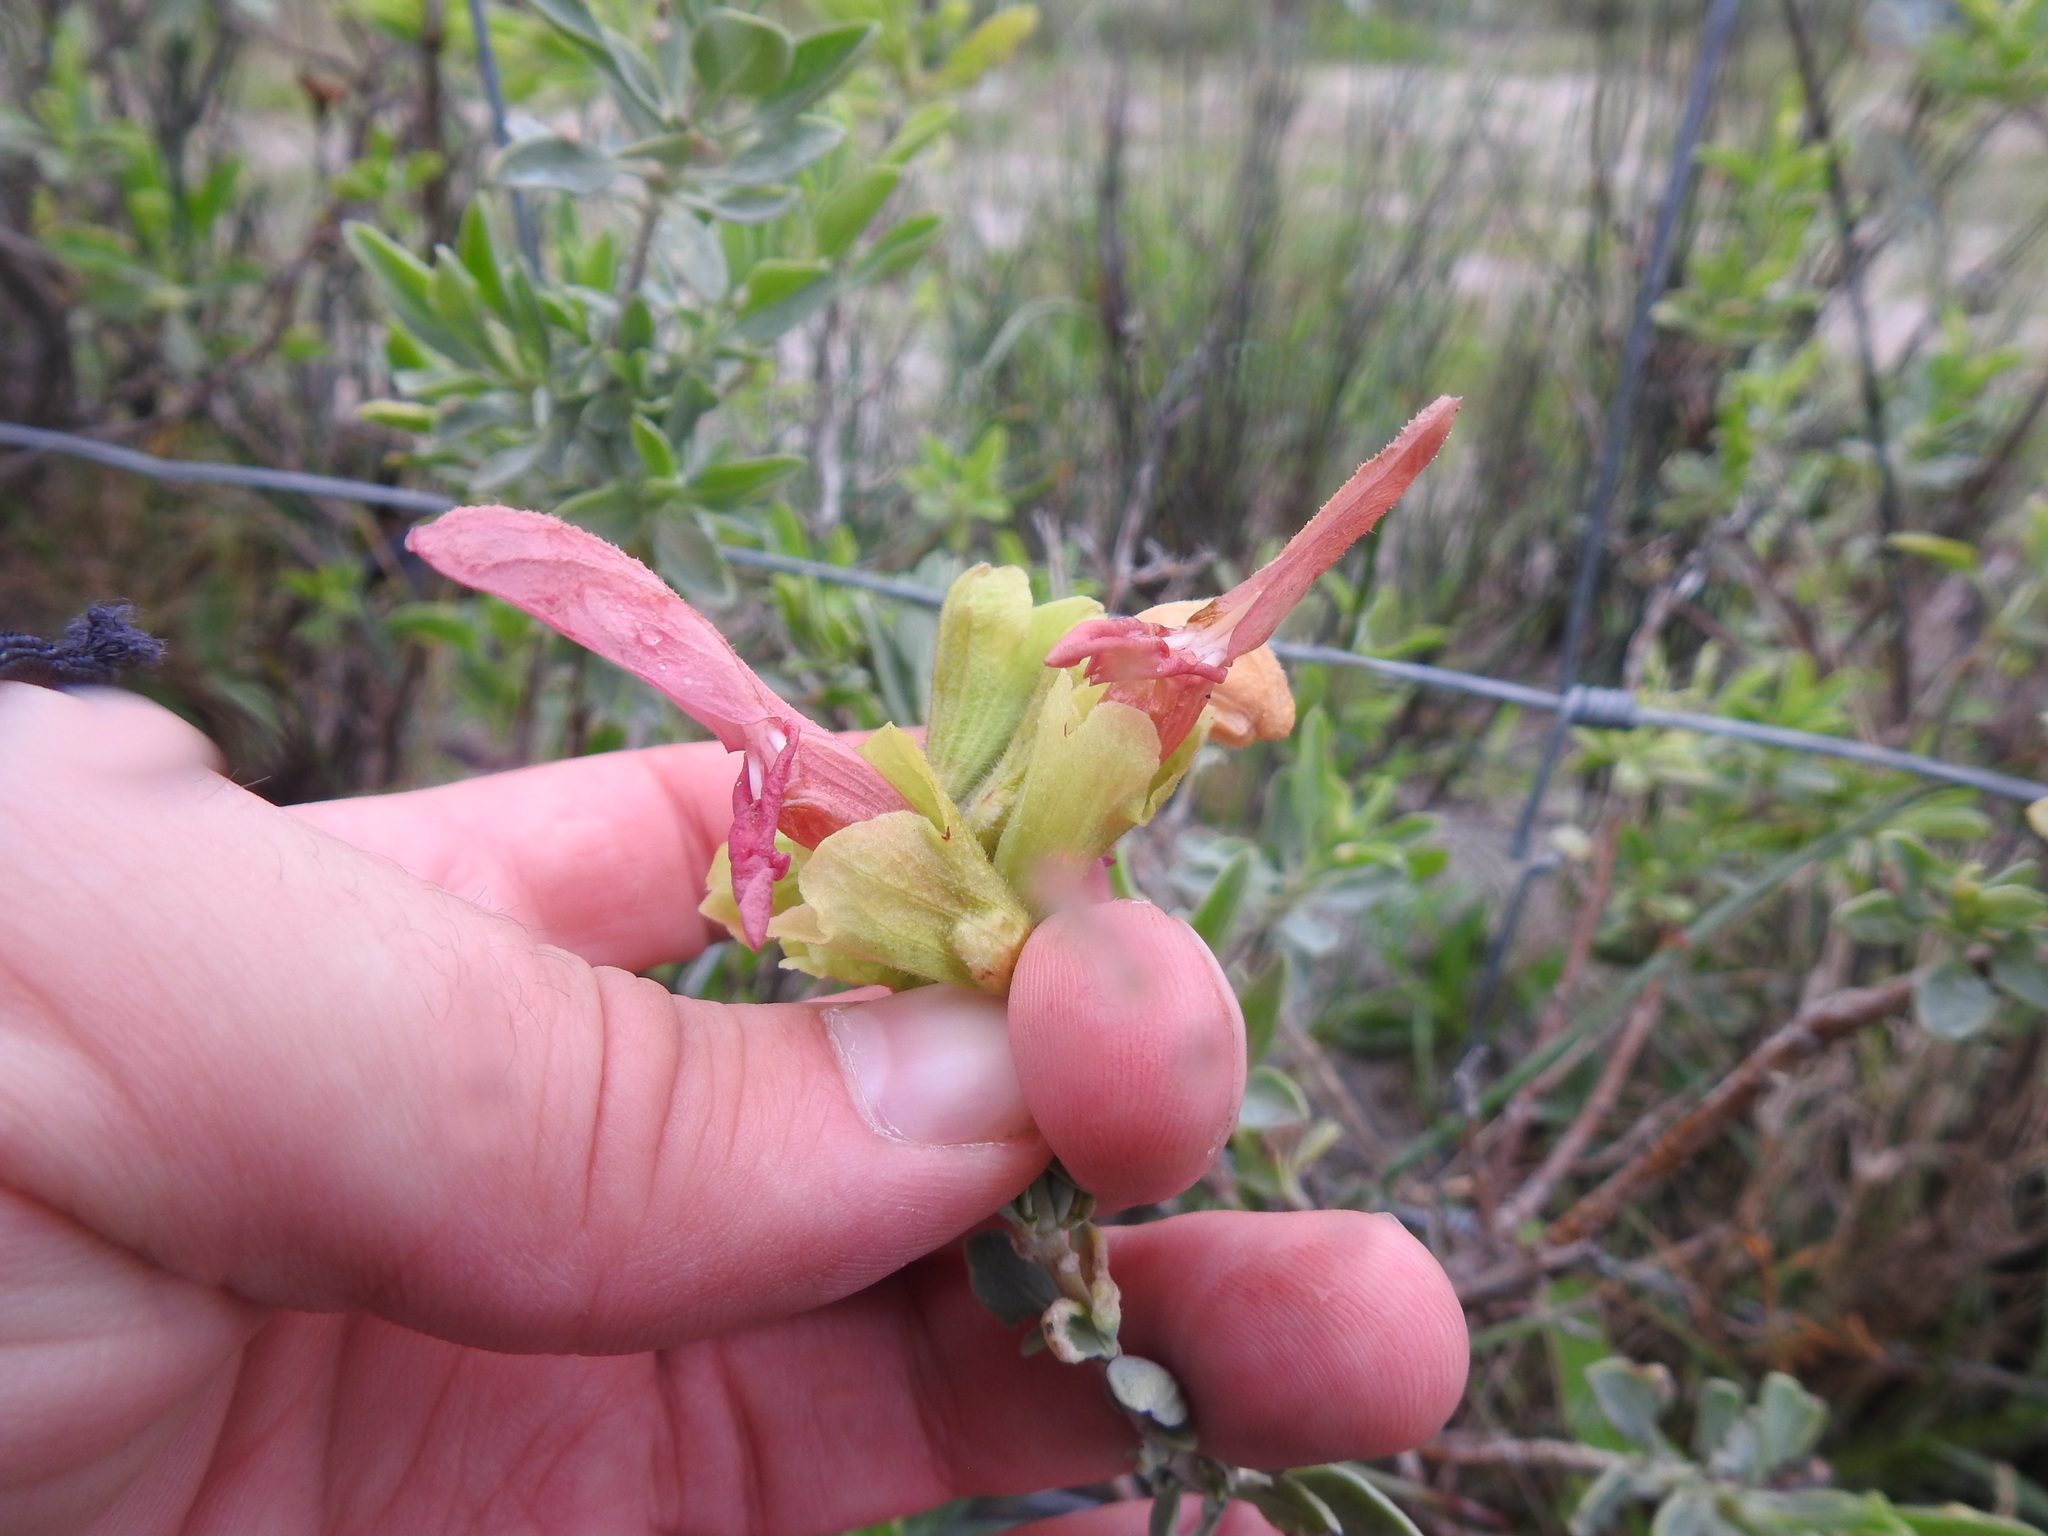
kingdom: Plantae
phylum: Tracheophyta
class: Magnoliopsida
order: Lamiales
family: Lamiaceae
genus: Salvia
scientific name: Salvia lanceolata
